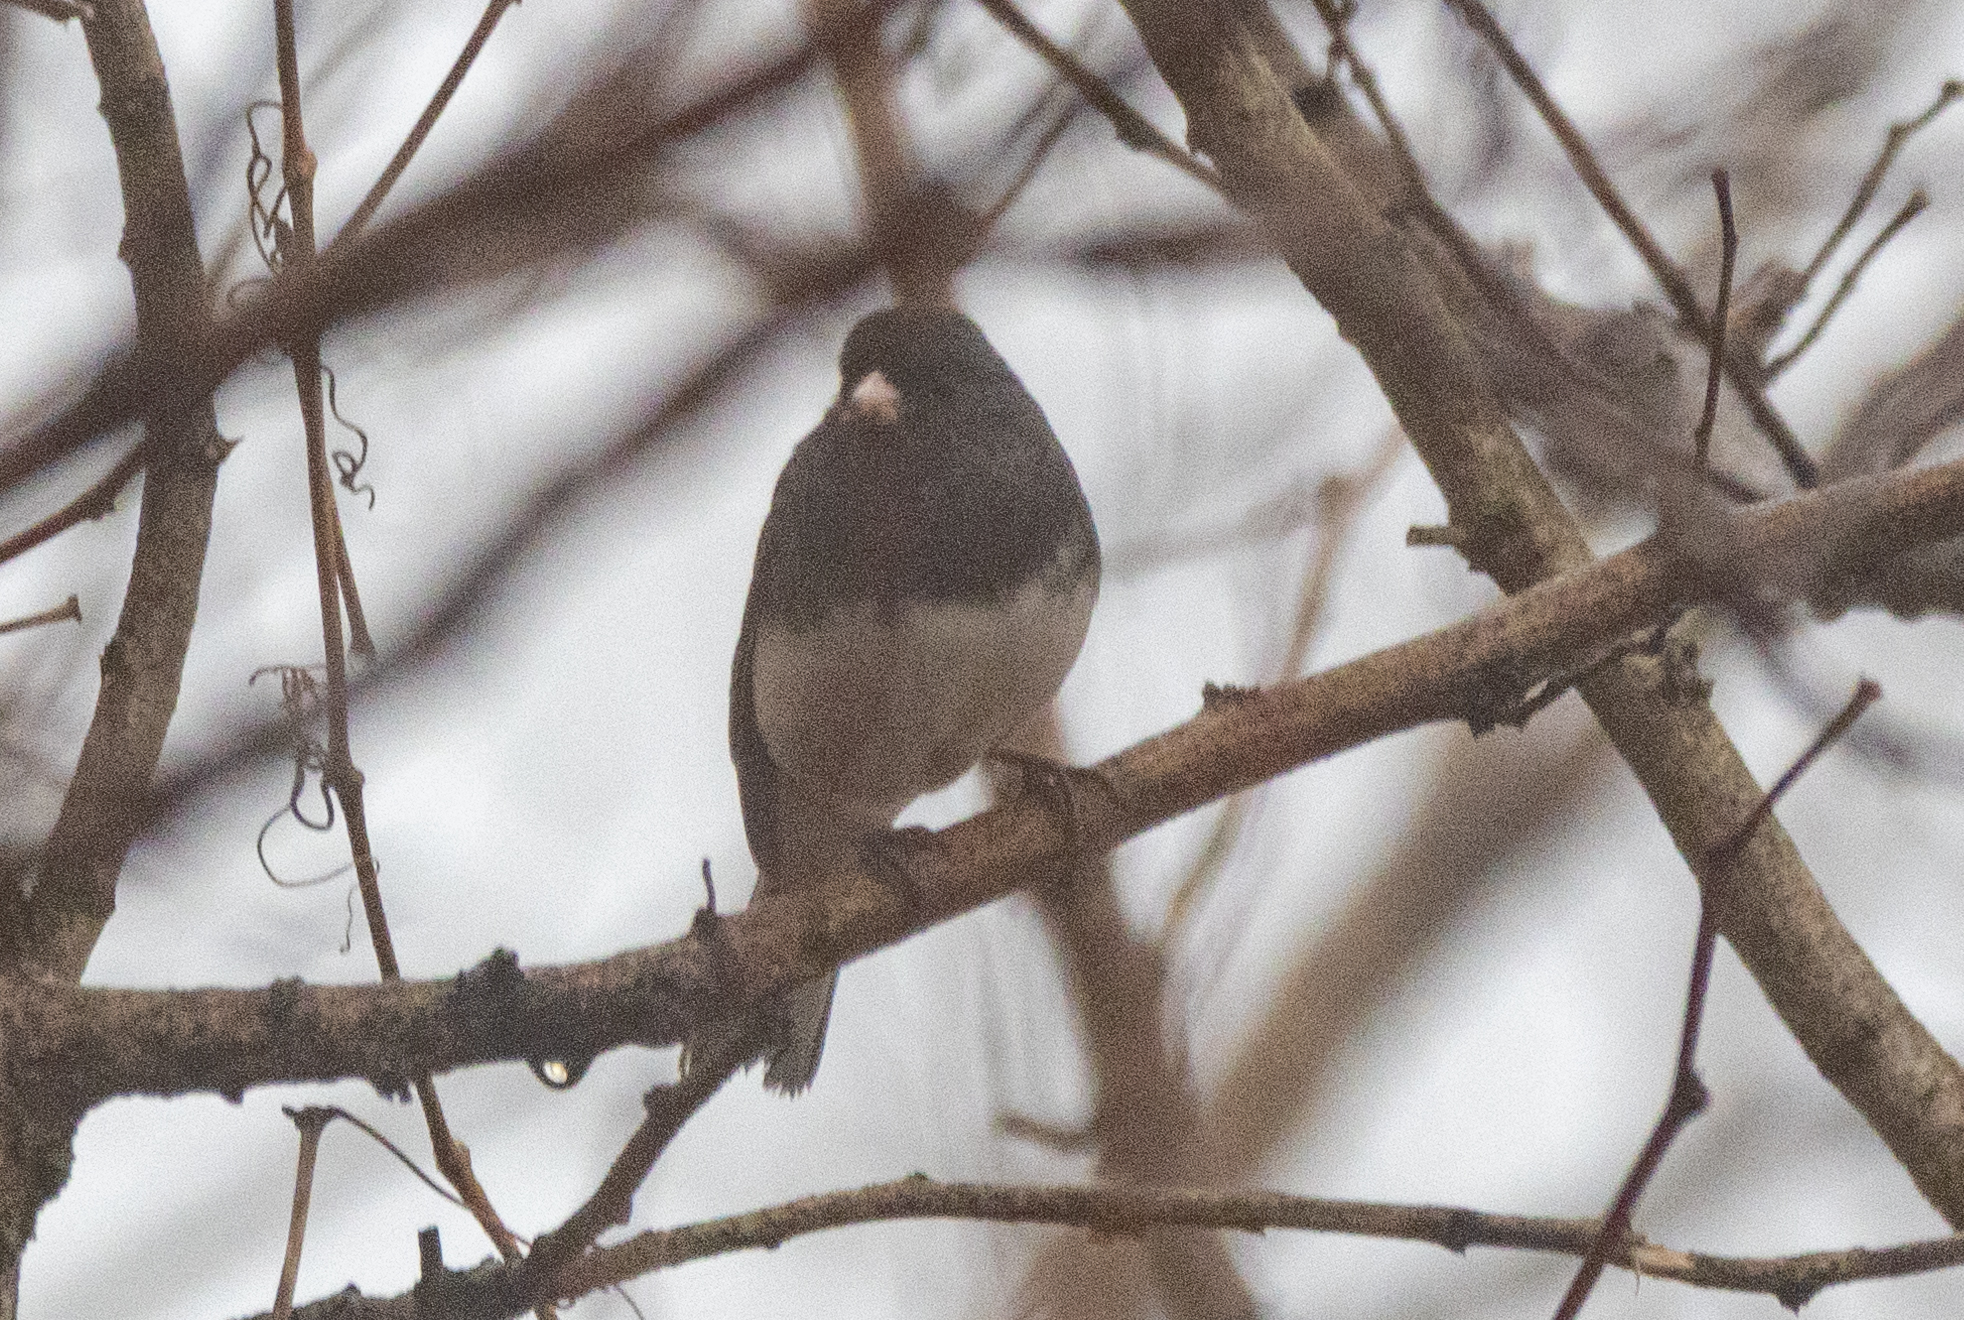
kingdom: Animalia
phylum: Chordata
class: Aves
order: Passeriformes
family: Passerellidae
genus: Junco
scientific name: Junco hyemalis
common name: Dark-eyed junco
